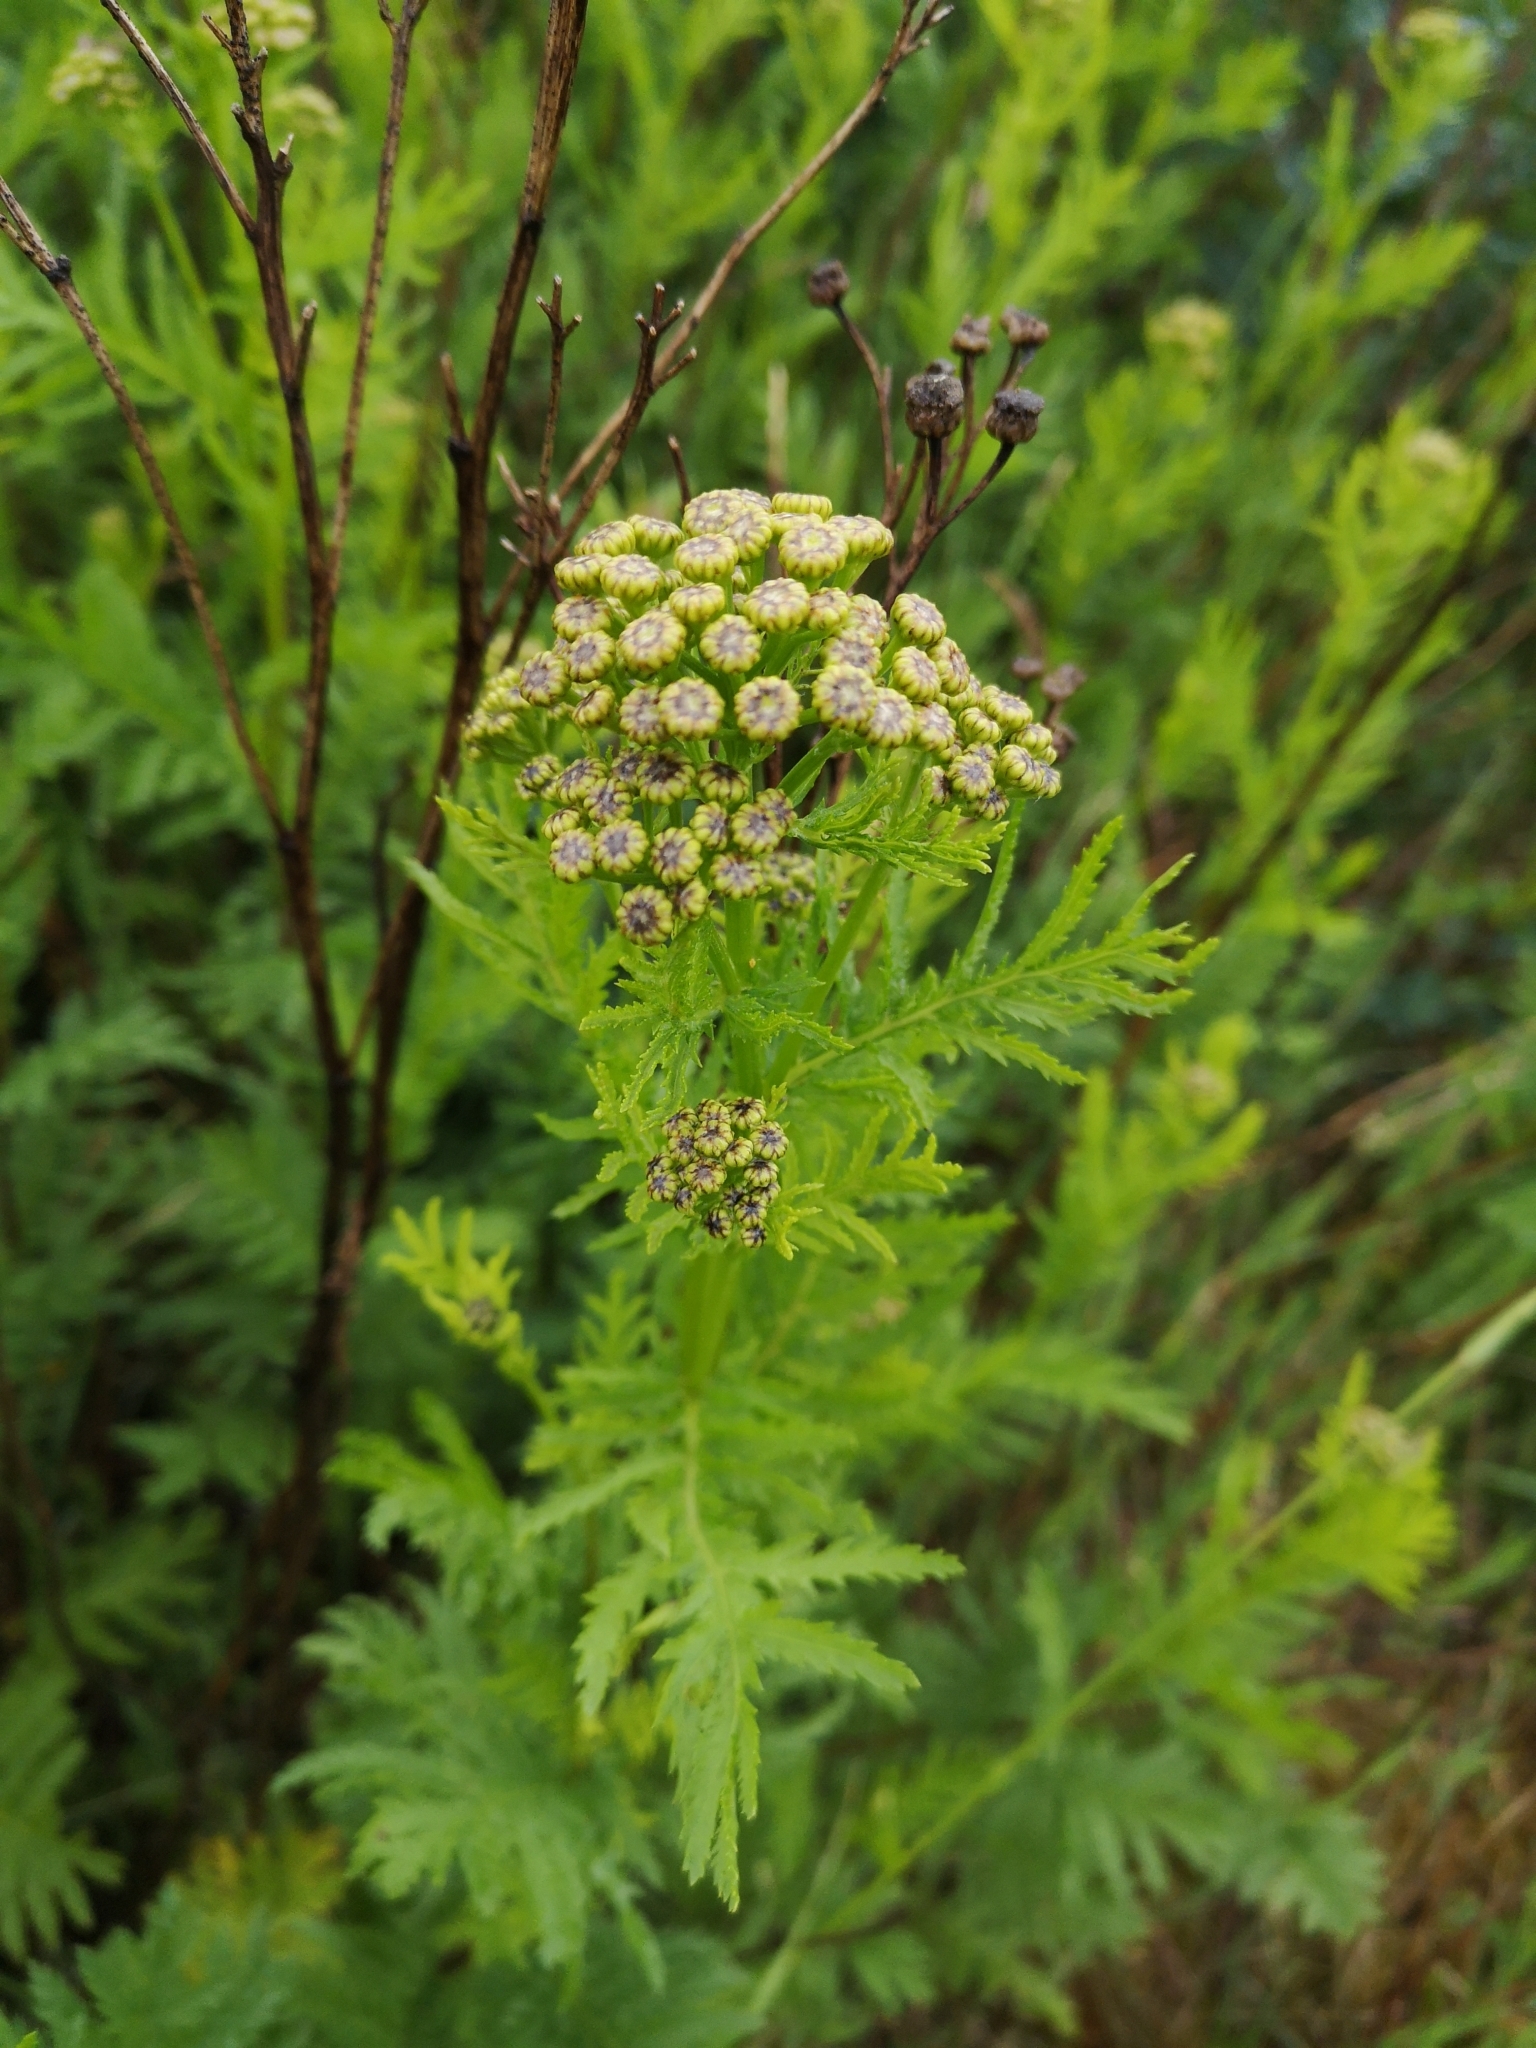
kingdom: Plantae
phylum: Tracheophyta
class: Magnoliopsida
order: Asterales
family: Asteraceae
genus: Tanacetum
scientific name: Tanacetum vulgare
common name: Common tansy
